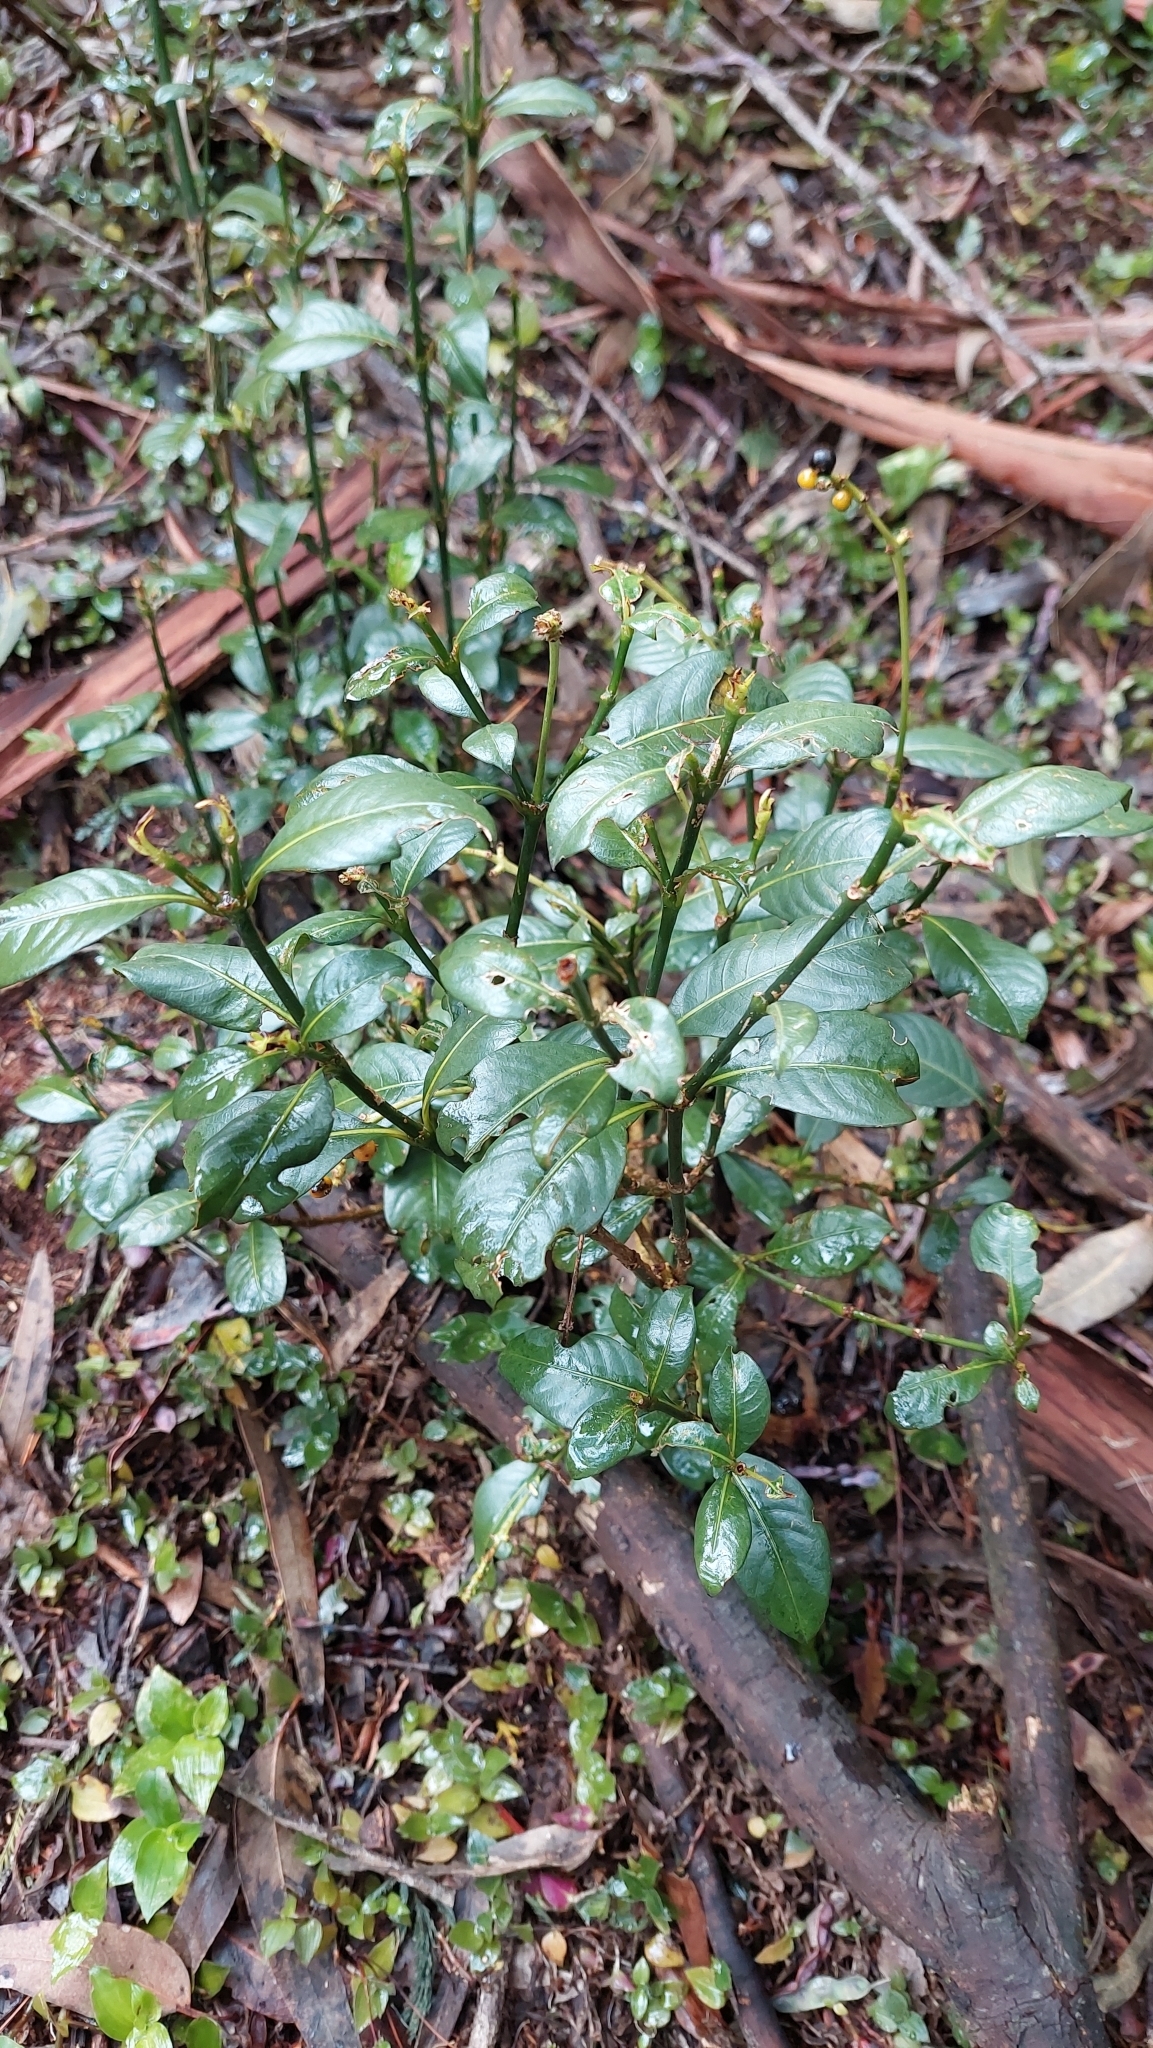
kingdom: Plantae
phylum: Tracheophyta
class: Magnoliopsida
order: Gentianales
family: Rubiaceae
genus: Palicourea
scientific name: Palicourea boqueronensis
